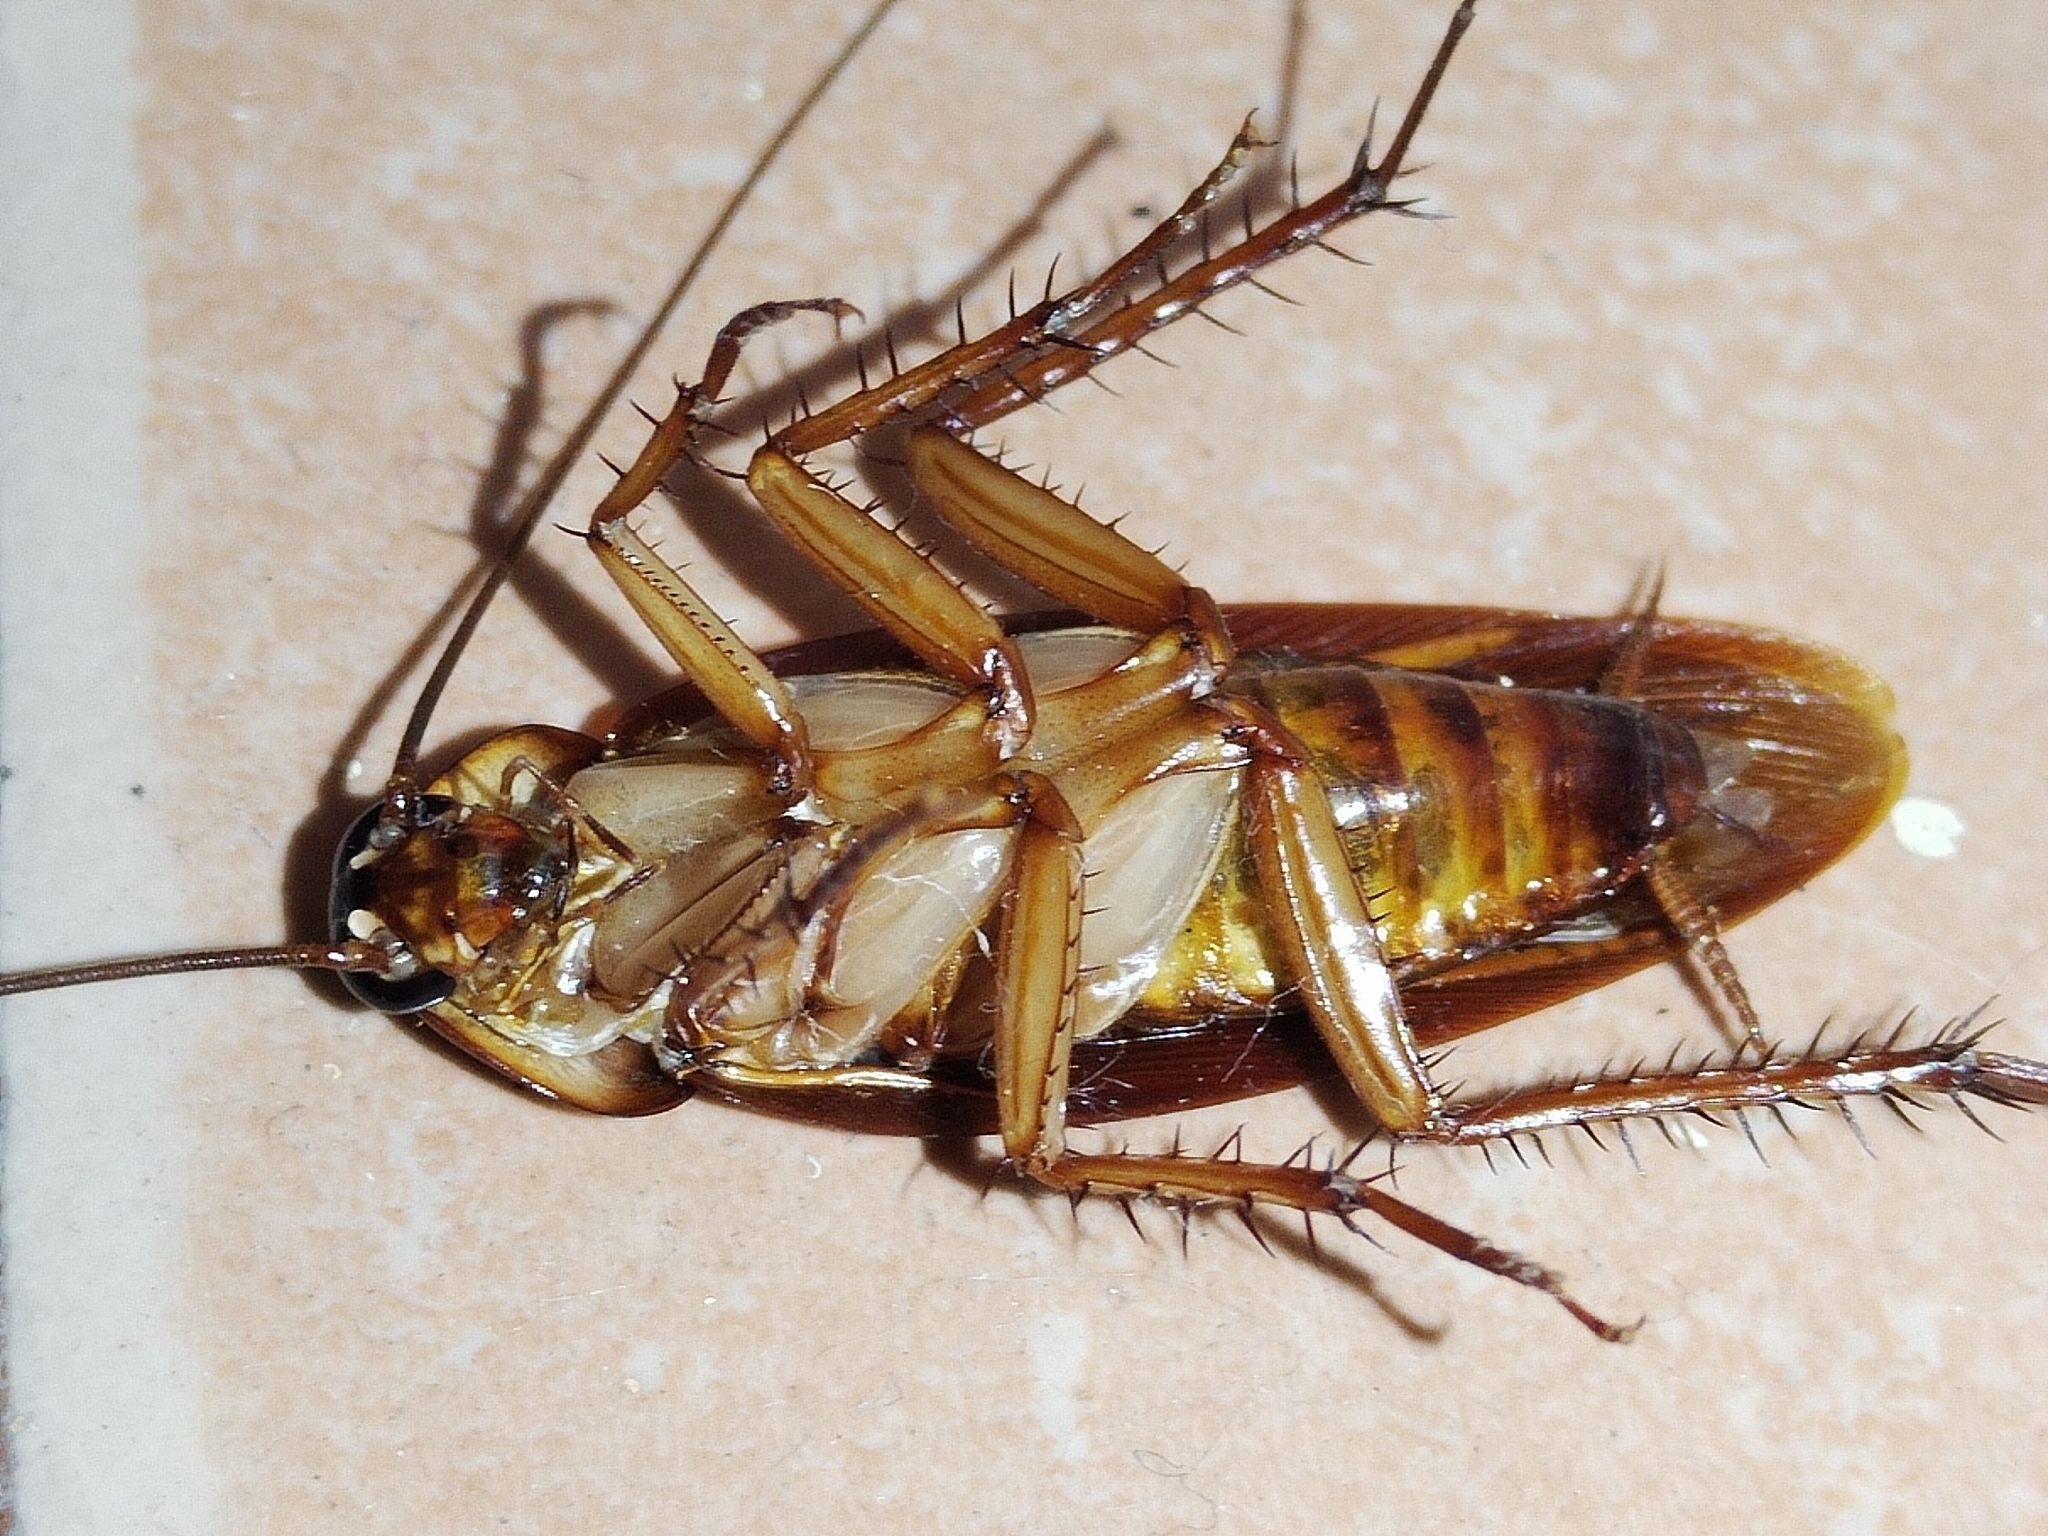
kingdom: Animalia
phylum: Arthropoda
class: Insecta
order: Blattodea
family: Blattidae
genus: Periplaneta
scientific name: Periplaneta americana
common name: American cockroach
